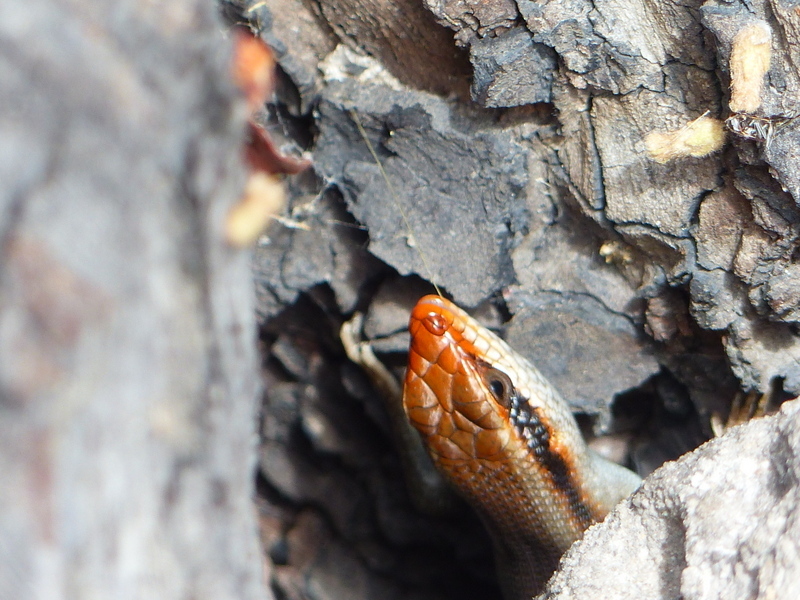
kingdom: Animalia
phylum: Chordata
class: Squamata
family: Scincidae
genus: Trachylepis
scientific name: Trachylepis wahlbergii
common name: Wahlberg’s striped skink
